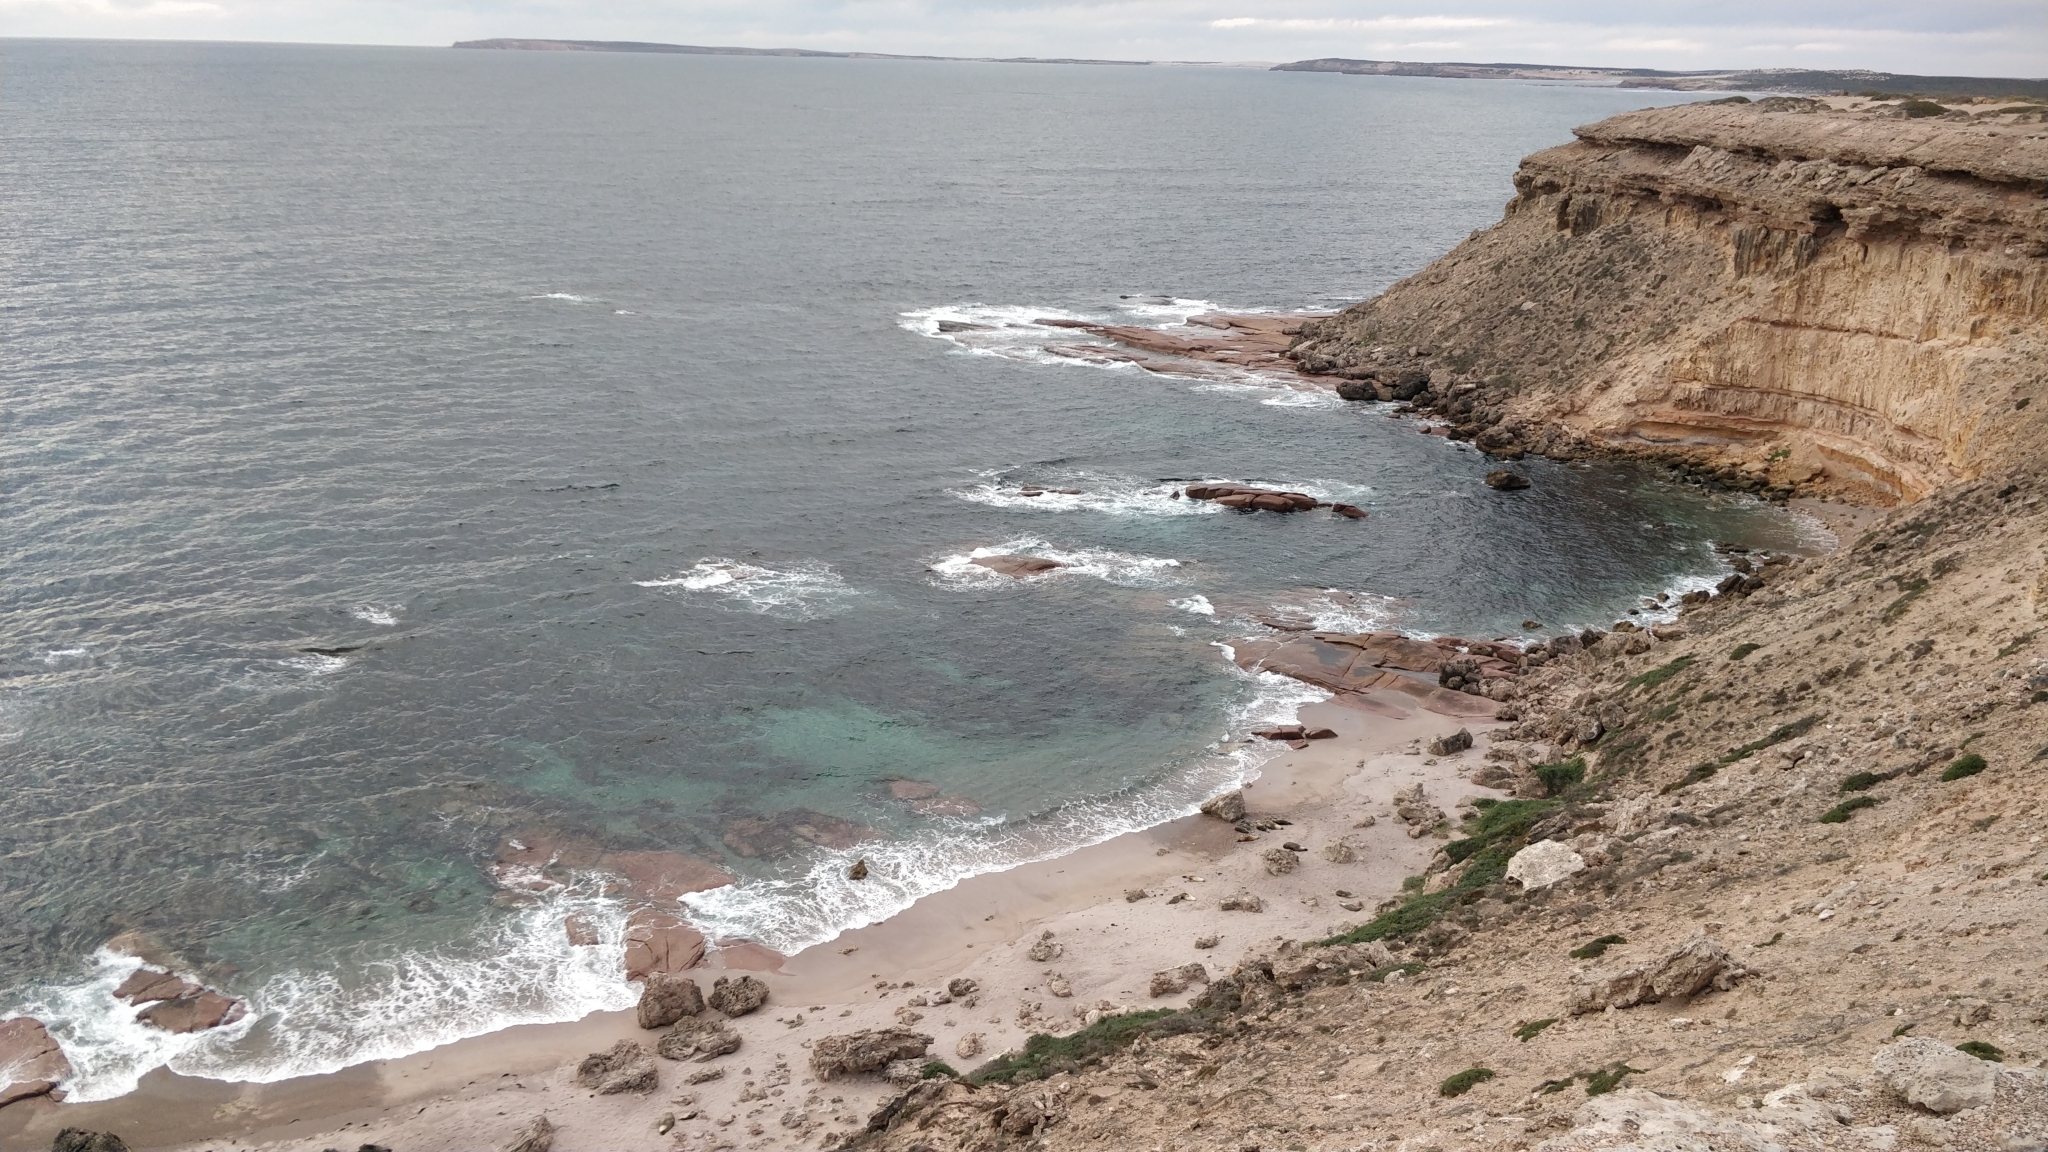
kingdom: Animalia
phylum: Chordata
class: Mammalia
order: Carnivora
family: Otariidae
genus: Neophoca
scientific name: Neophoca cinerea
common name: Australian sea lion
